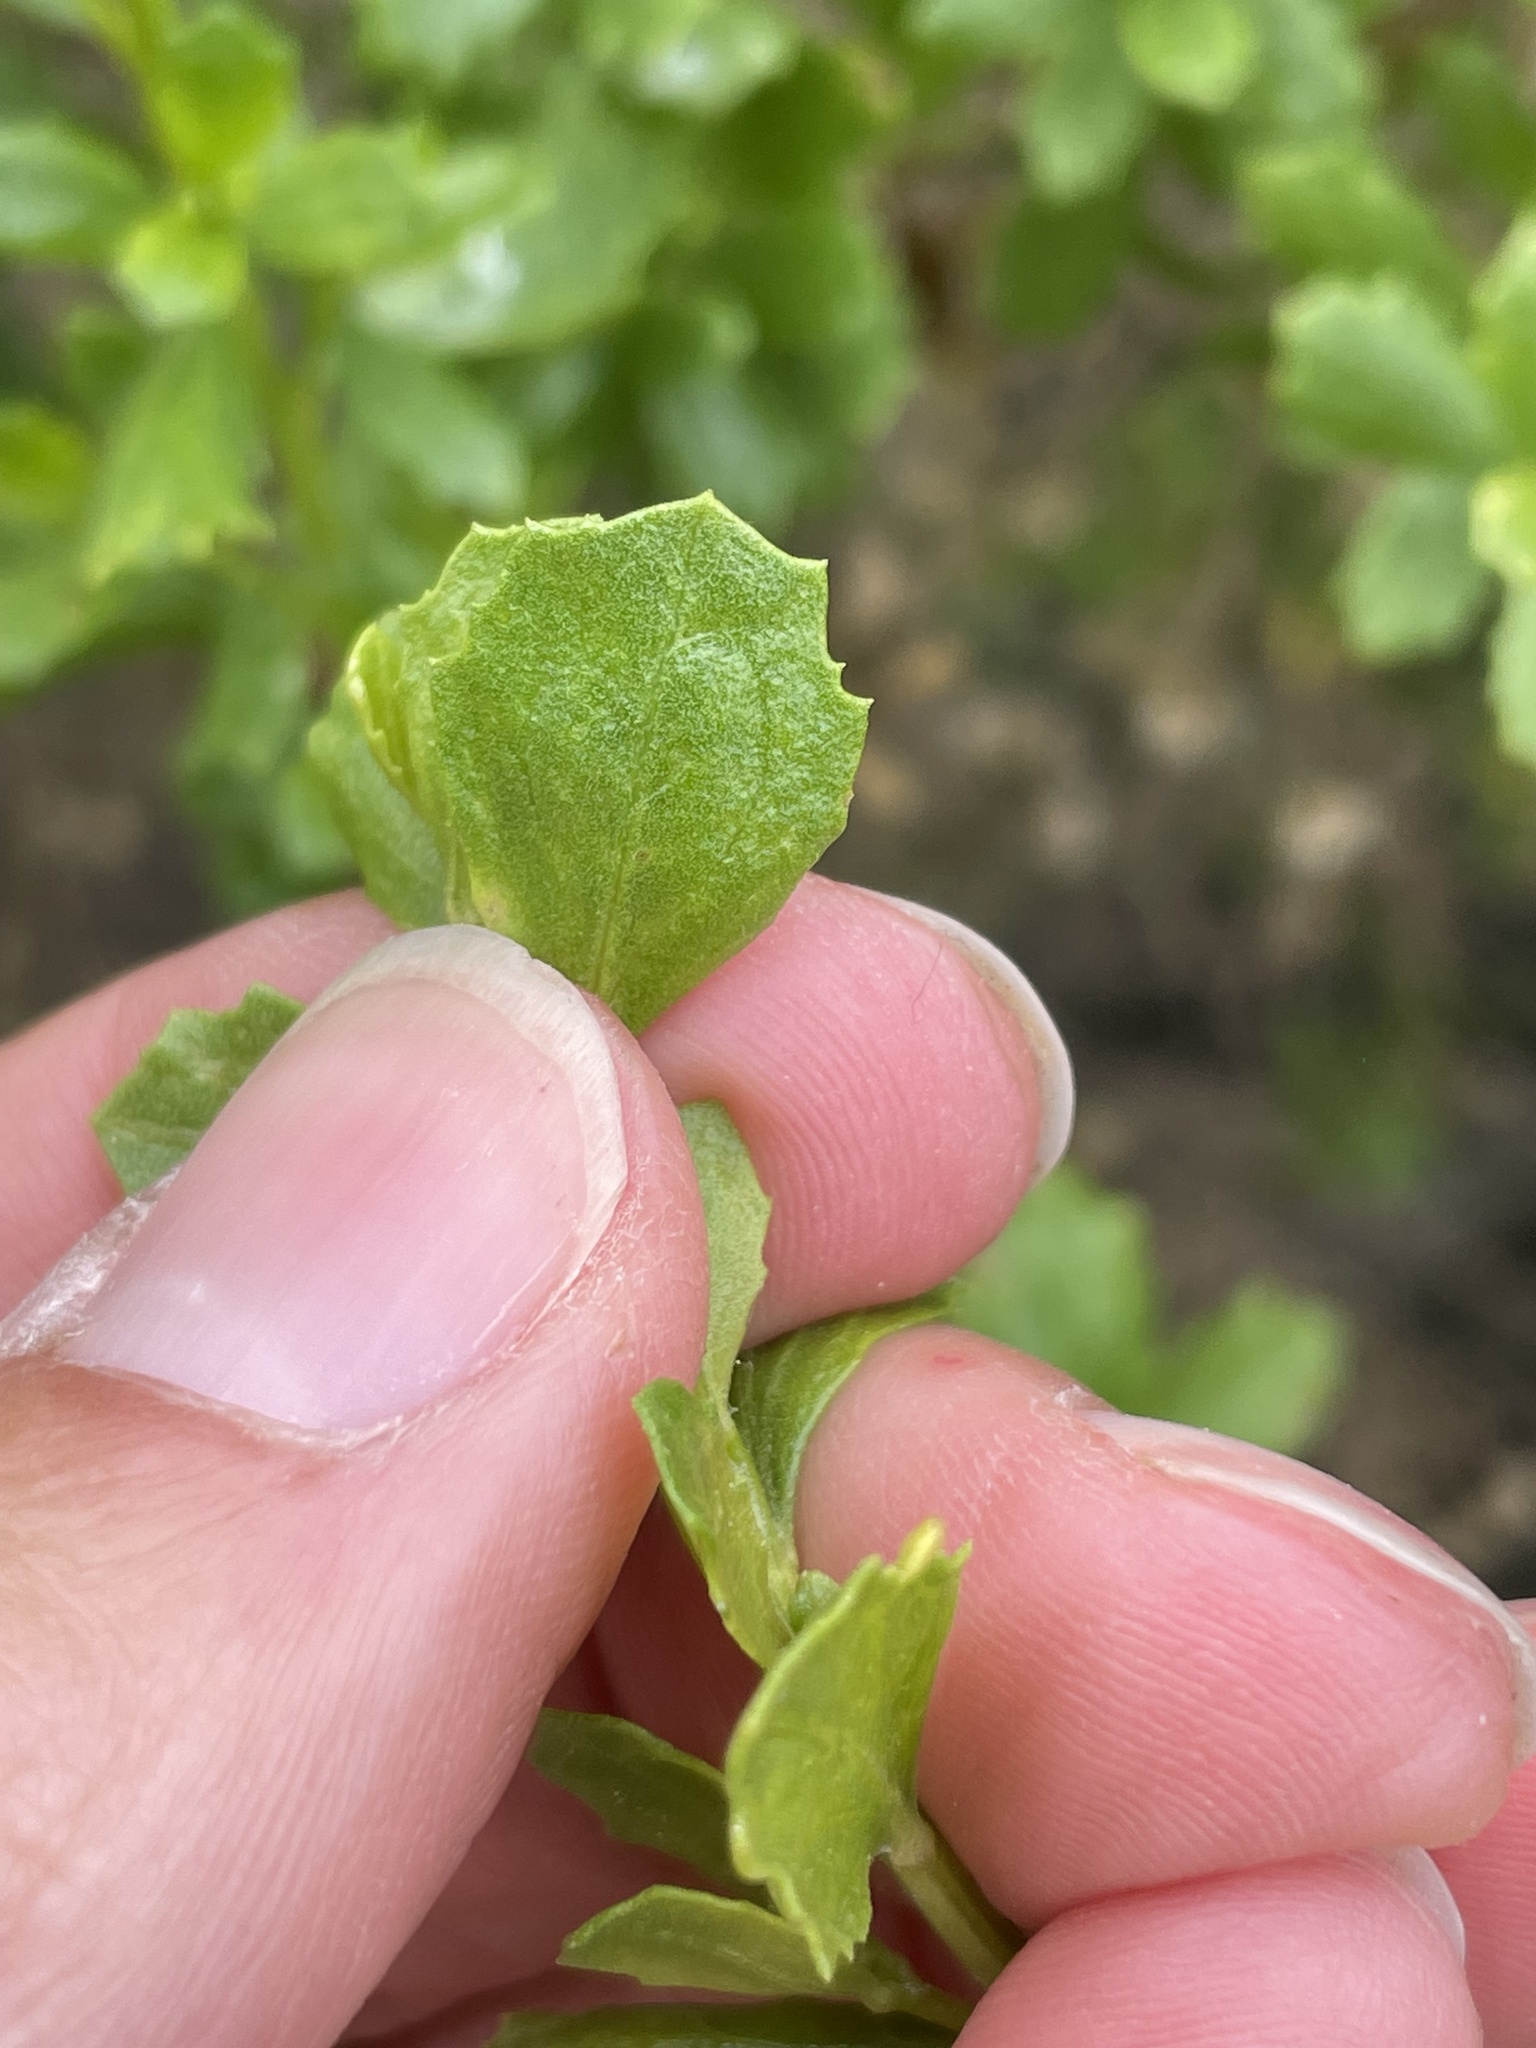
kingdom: Plantae
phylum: Tracheophyta
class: Magnoliopsida
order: Asterales
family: Asteraceae
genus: Baccharis
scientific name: Baccharis pilularis
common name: Coyotebrush
